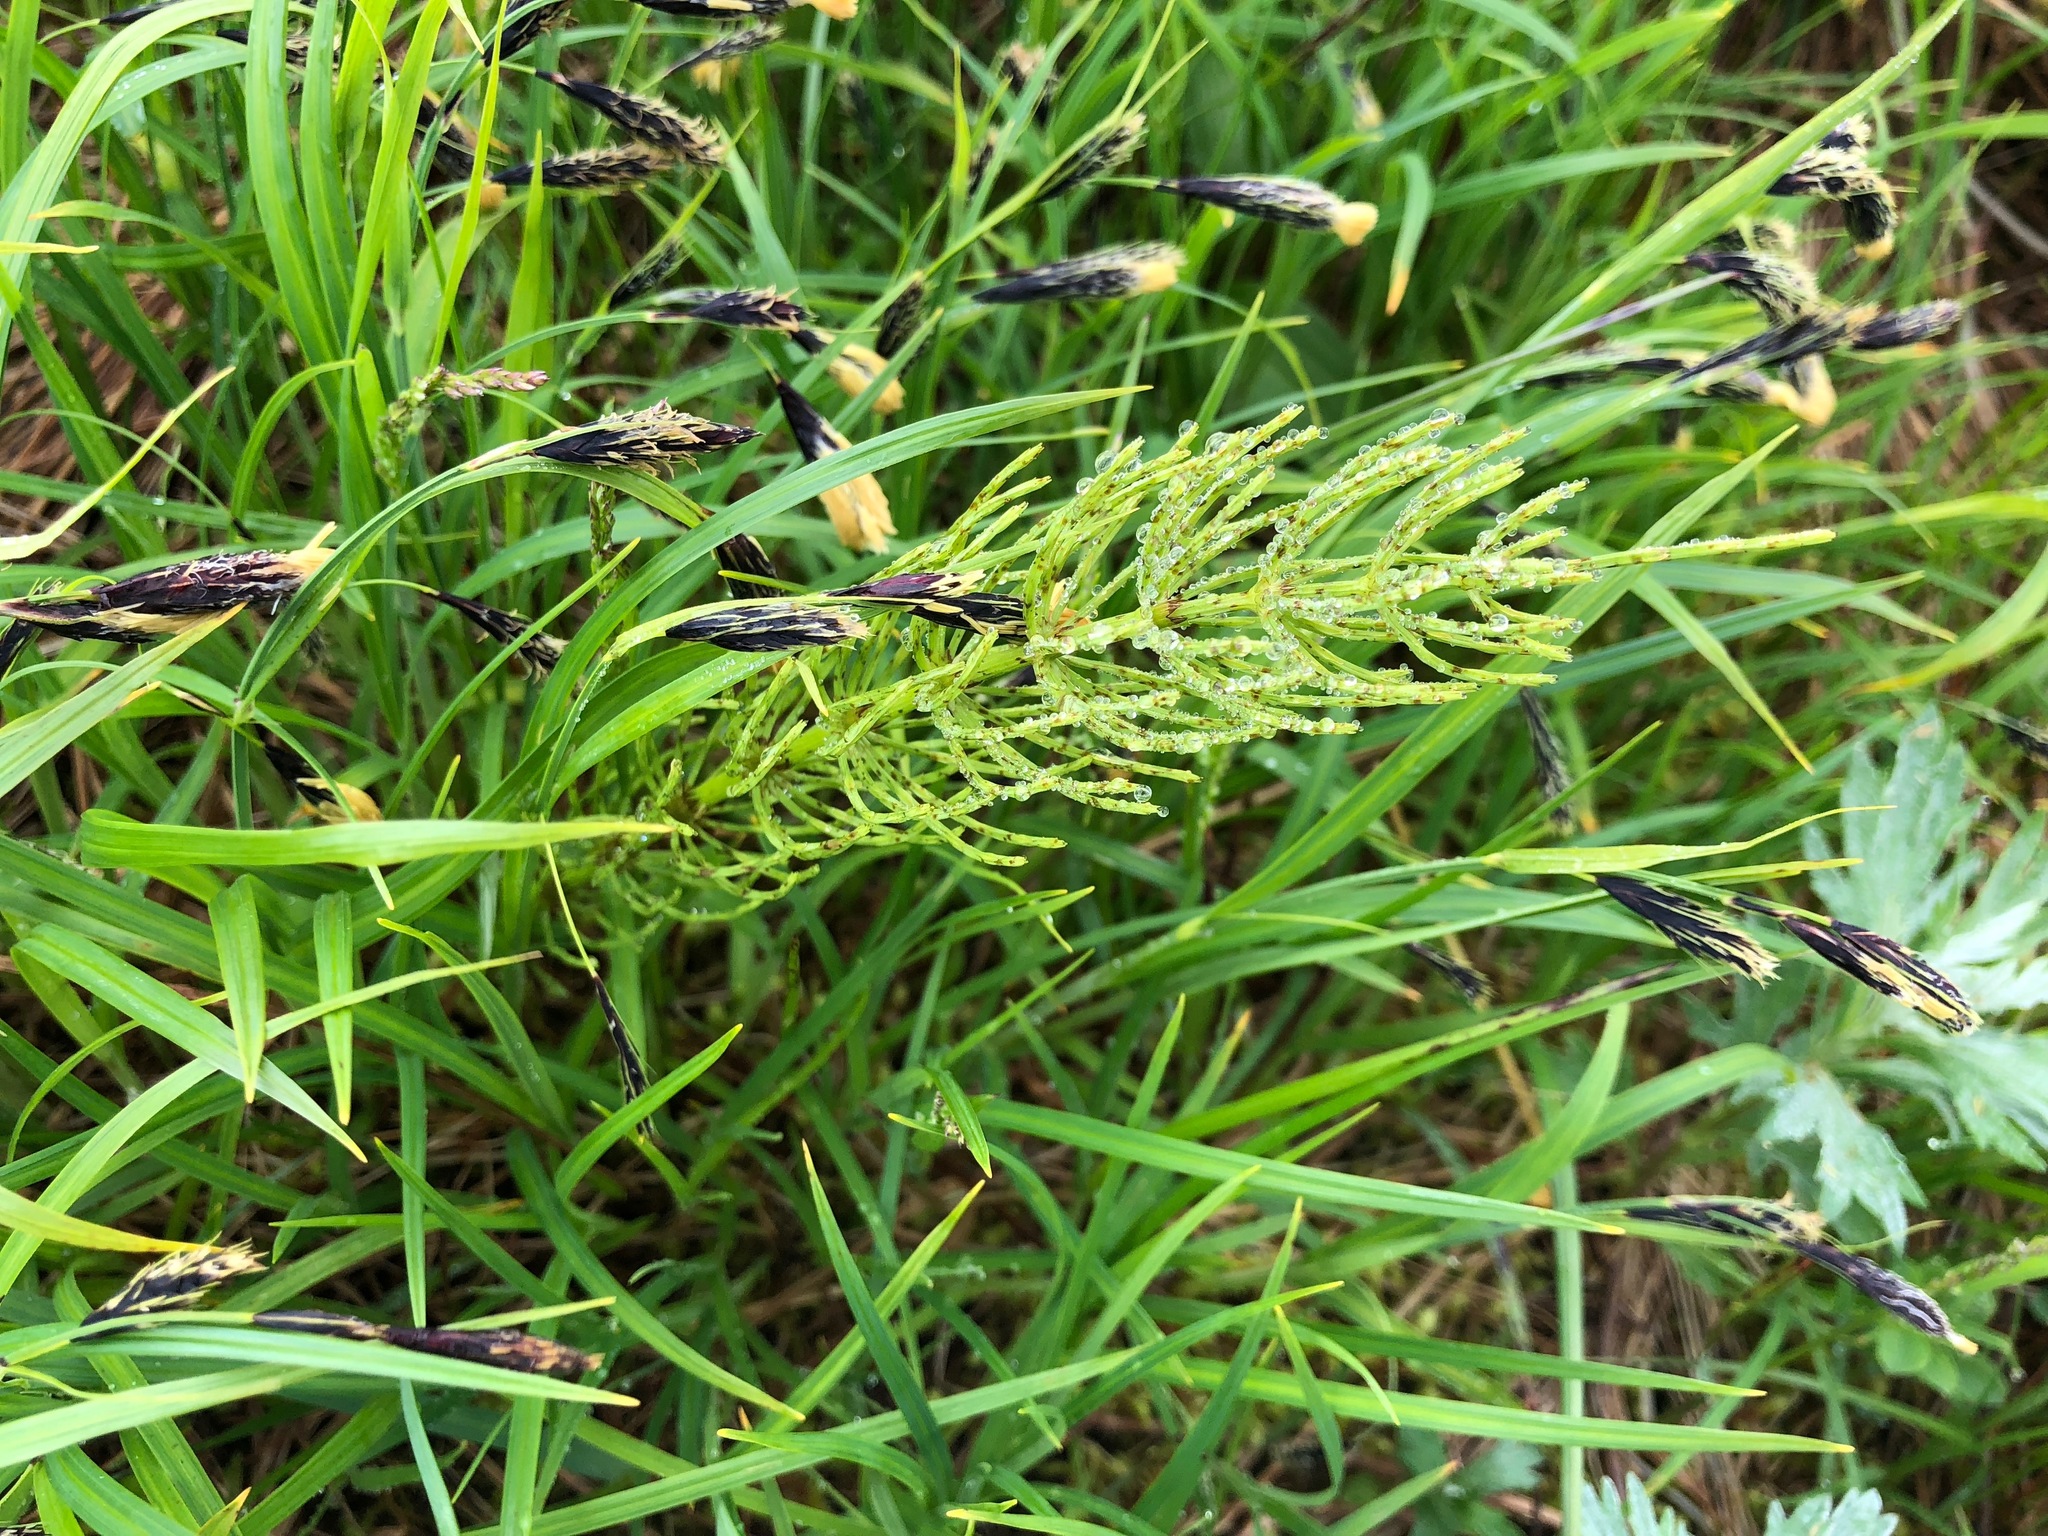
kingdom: Plantae
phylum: Tracheophyta
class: Polypodiopsida
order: Equisetales
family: Equisetaceae
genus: Equisetum
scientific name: Equisetum arvense
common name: Field horsetail
